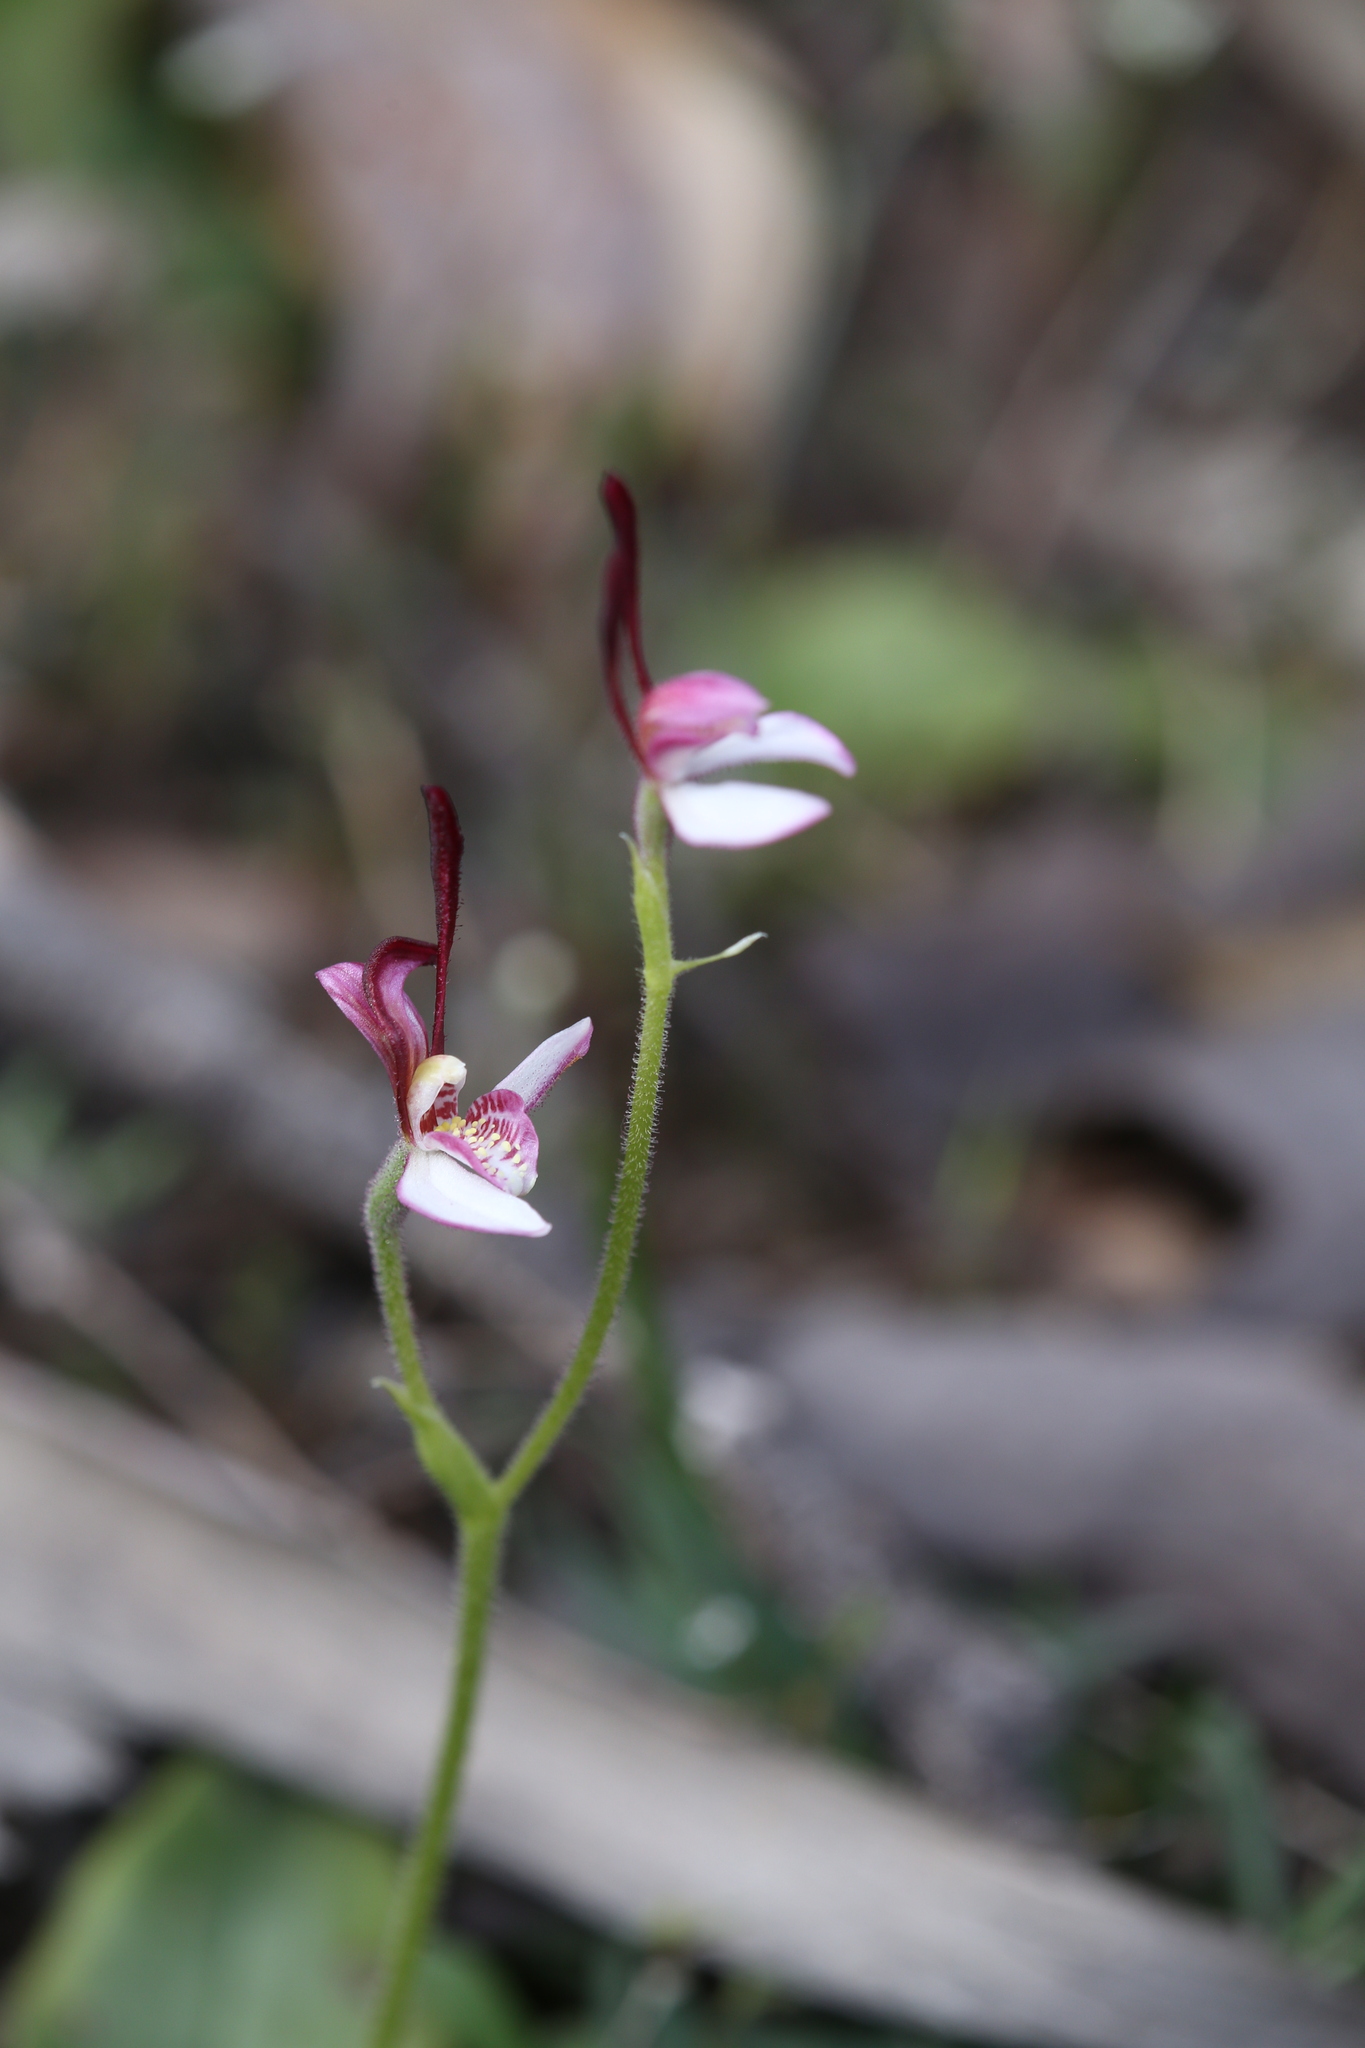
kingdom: Plantae
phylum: Tracheophyta
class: Liliopsida
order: Asparagales
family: Orchidaceae
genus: Leptoceras
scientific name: Leptoceras menziesii
